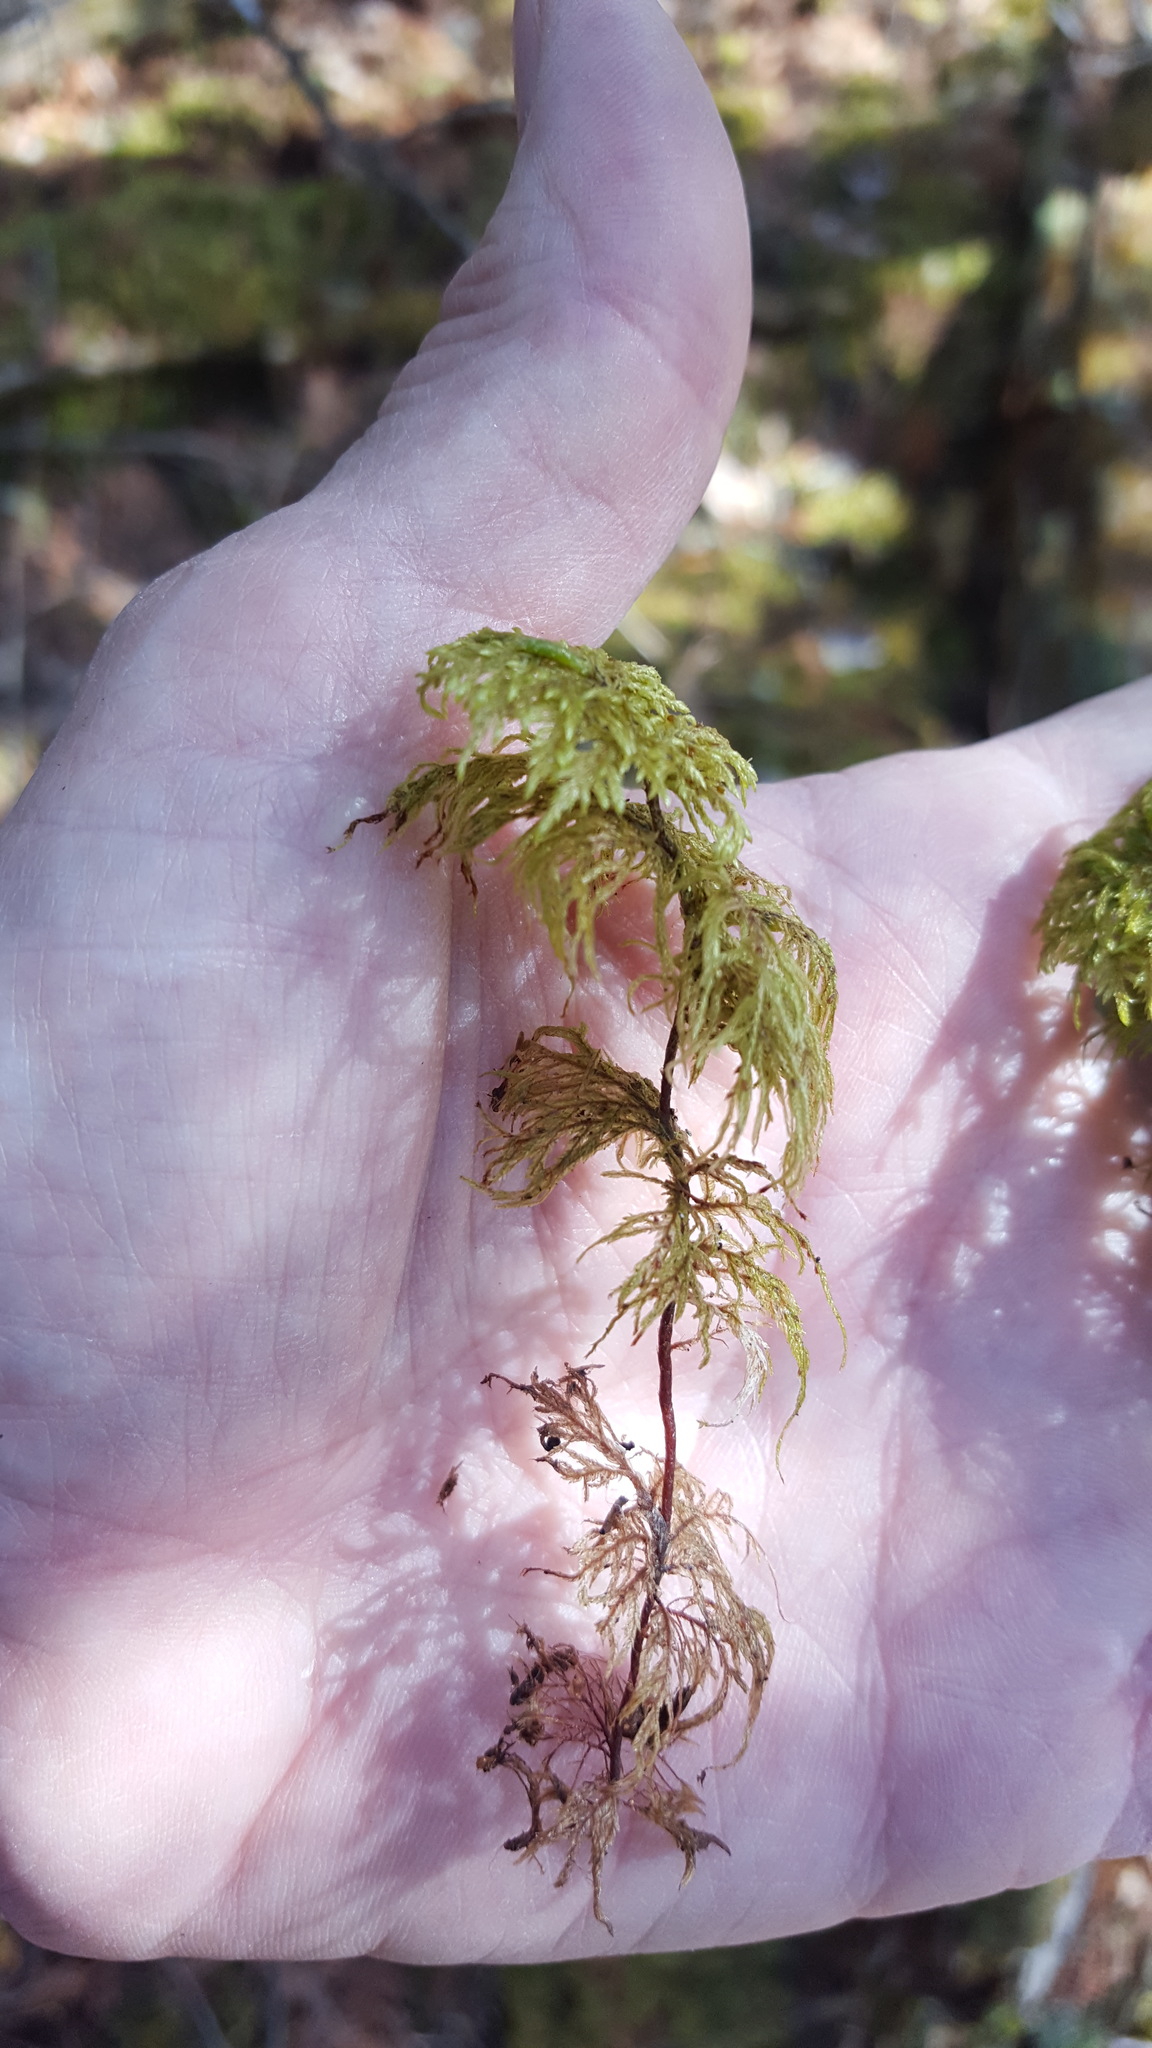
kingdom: Plantae
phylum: Bryophyta
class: Bryopsida
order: Hypnales
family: Hylocomiaceae
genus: Hylocomium
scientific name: Hylocomium splendens
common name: Stairstep moss
